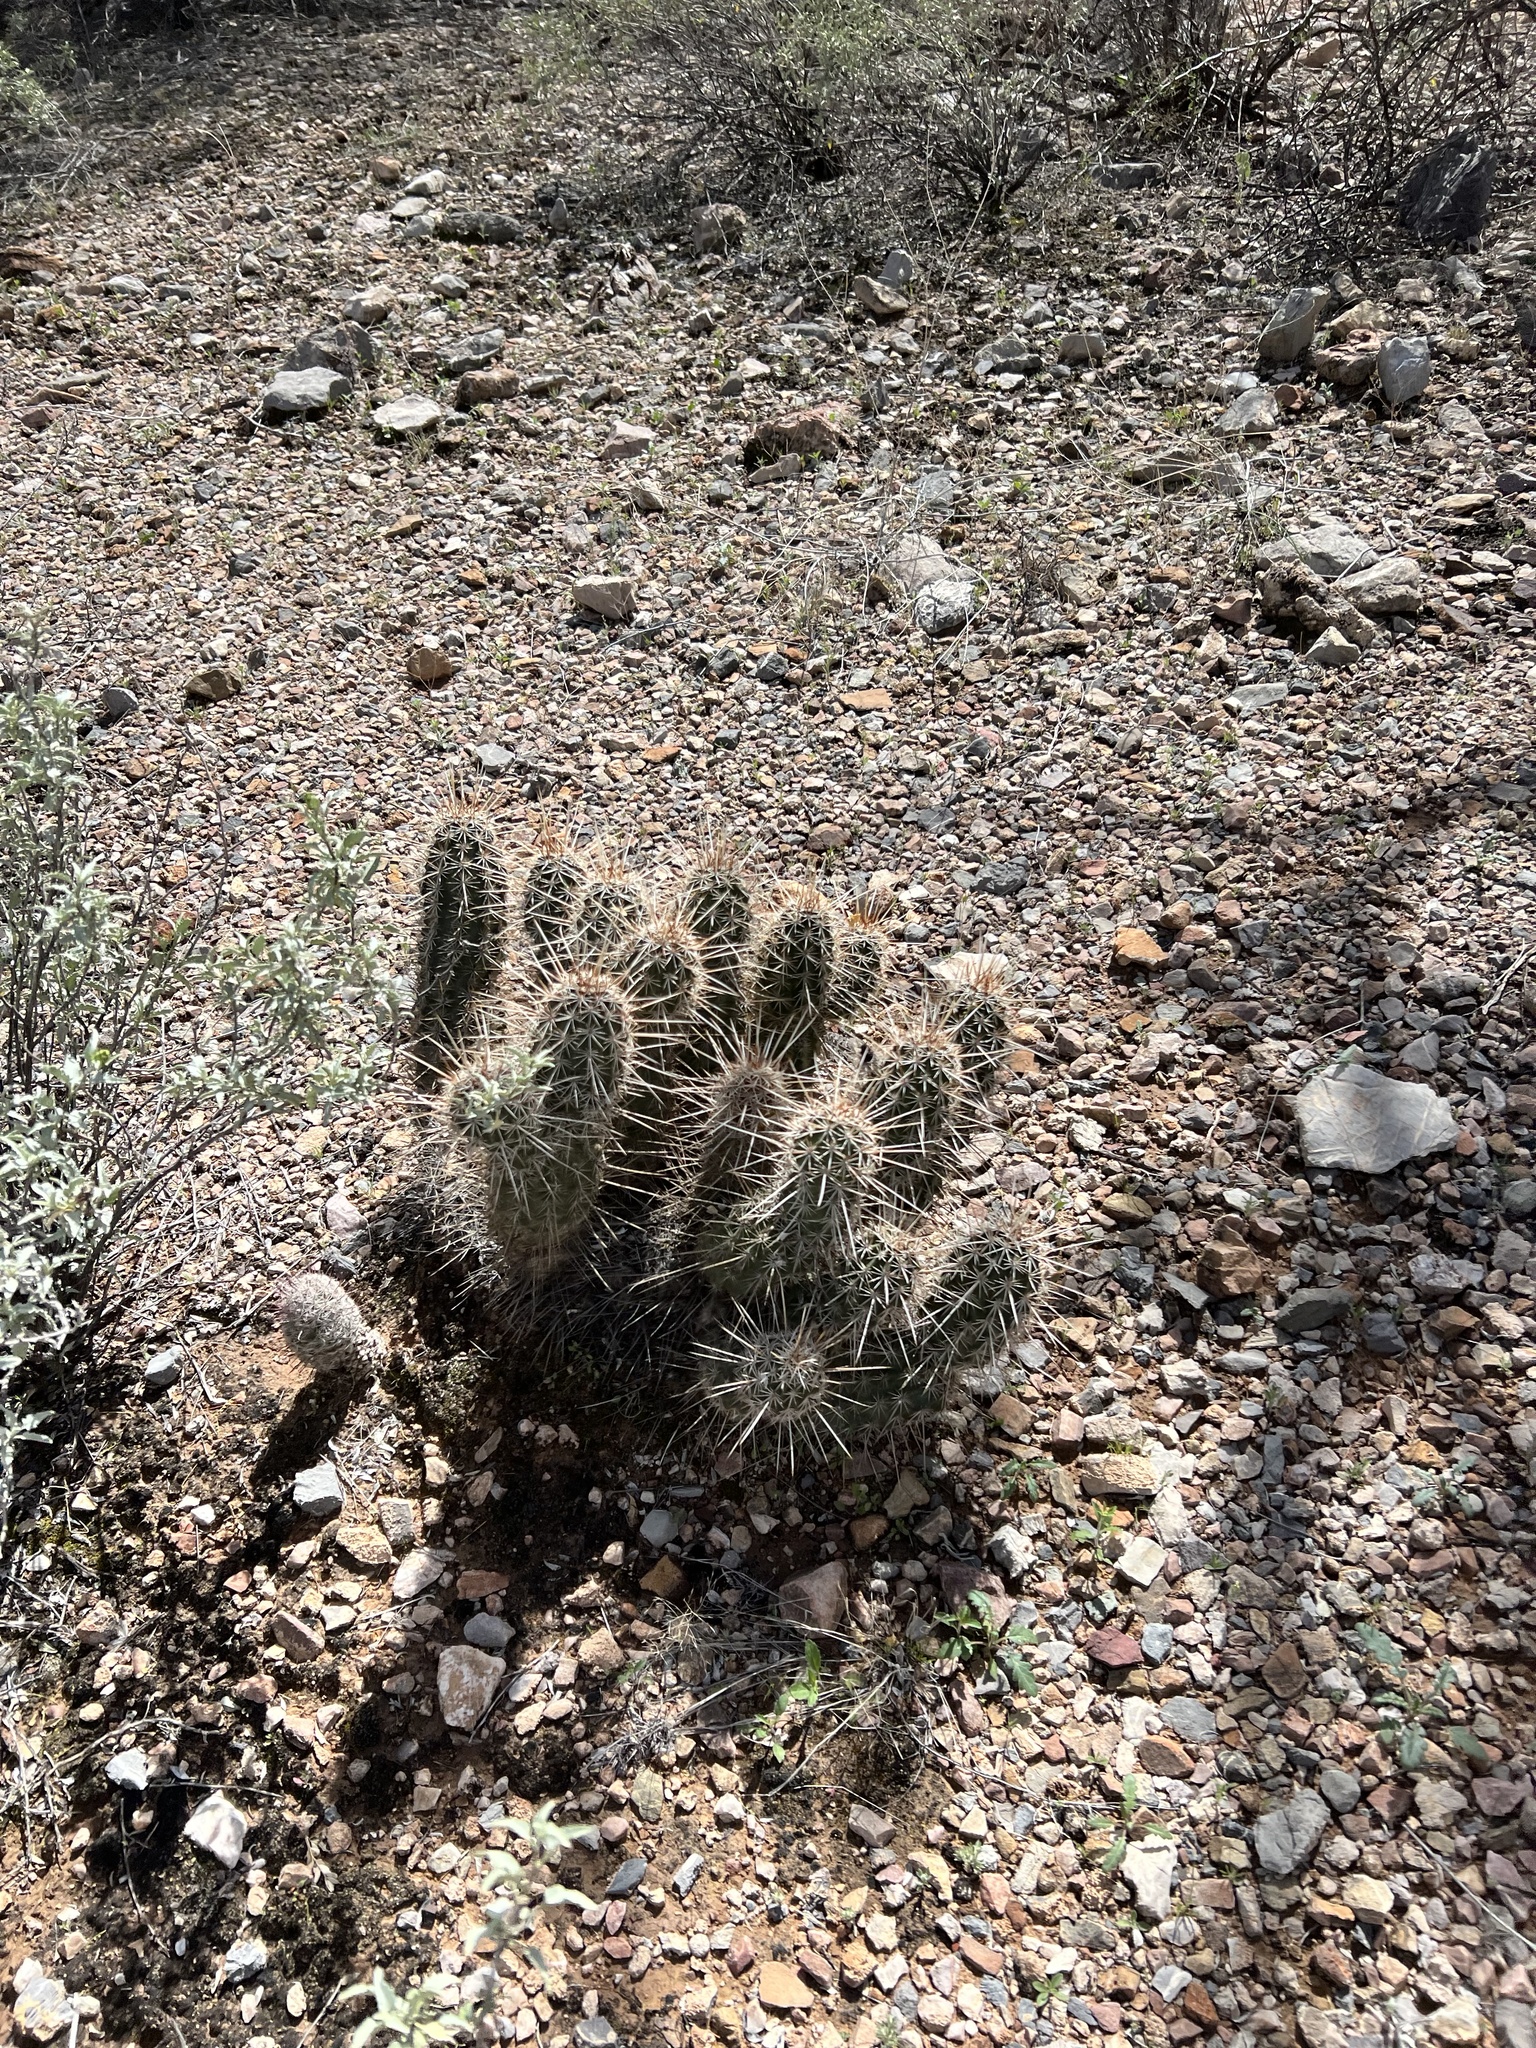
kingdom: Plantae
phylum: Tracheophyta
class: Magnoliopsida
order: Caryophyllales
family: Cactaceae
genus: Echinocereus
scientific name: Echinocereus fasciculatus
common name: Bundle hedgehog
